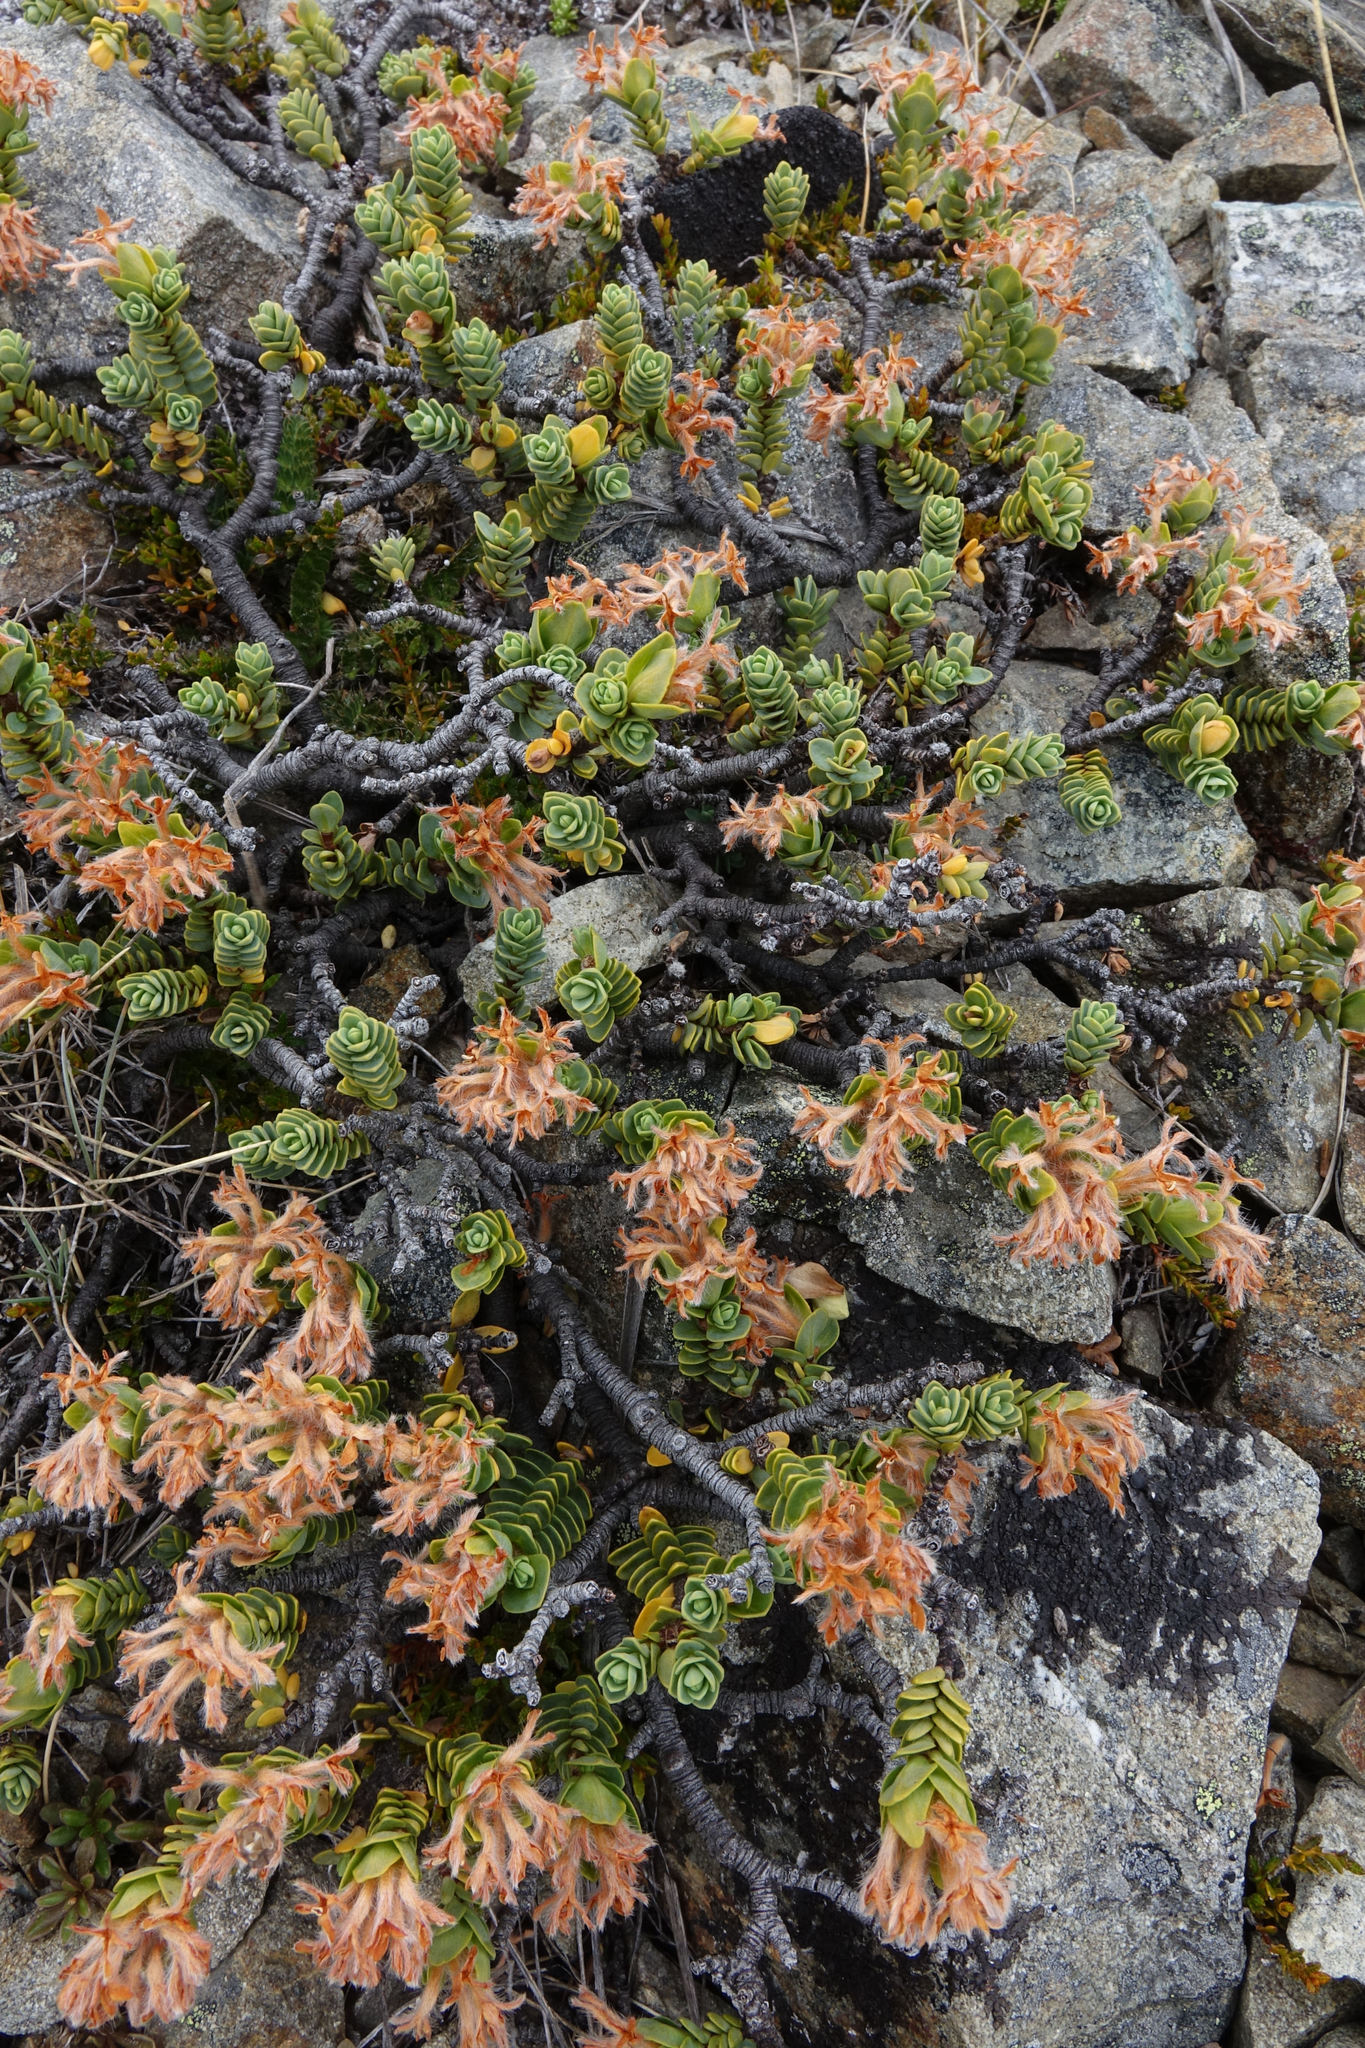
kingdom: Plantae
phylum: Tracheophyta
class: Magnoliopsida
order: Malvales
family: Thymelaeaceae
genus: Pimelea
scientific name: Pimelea traversii
